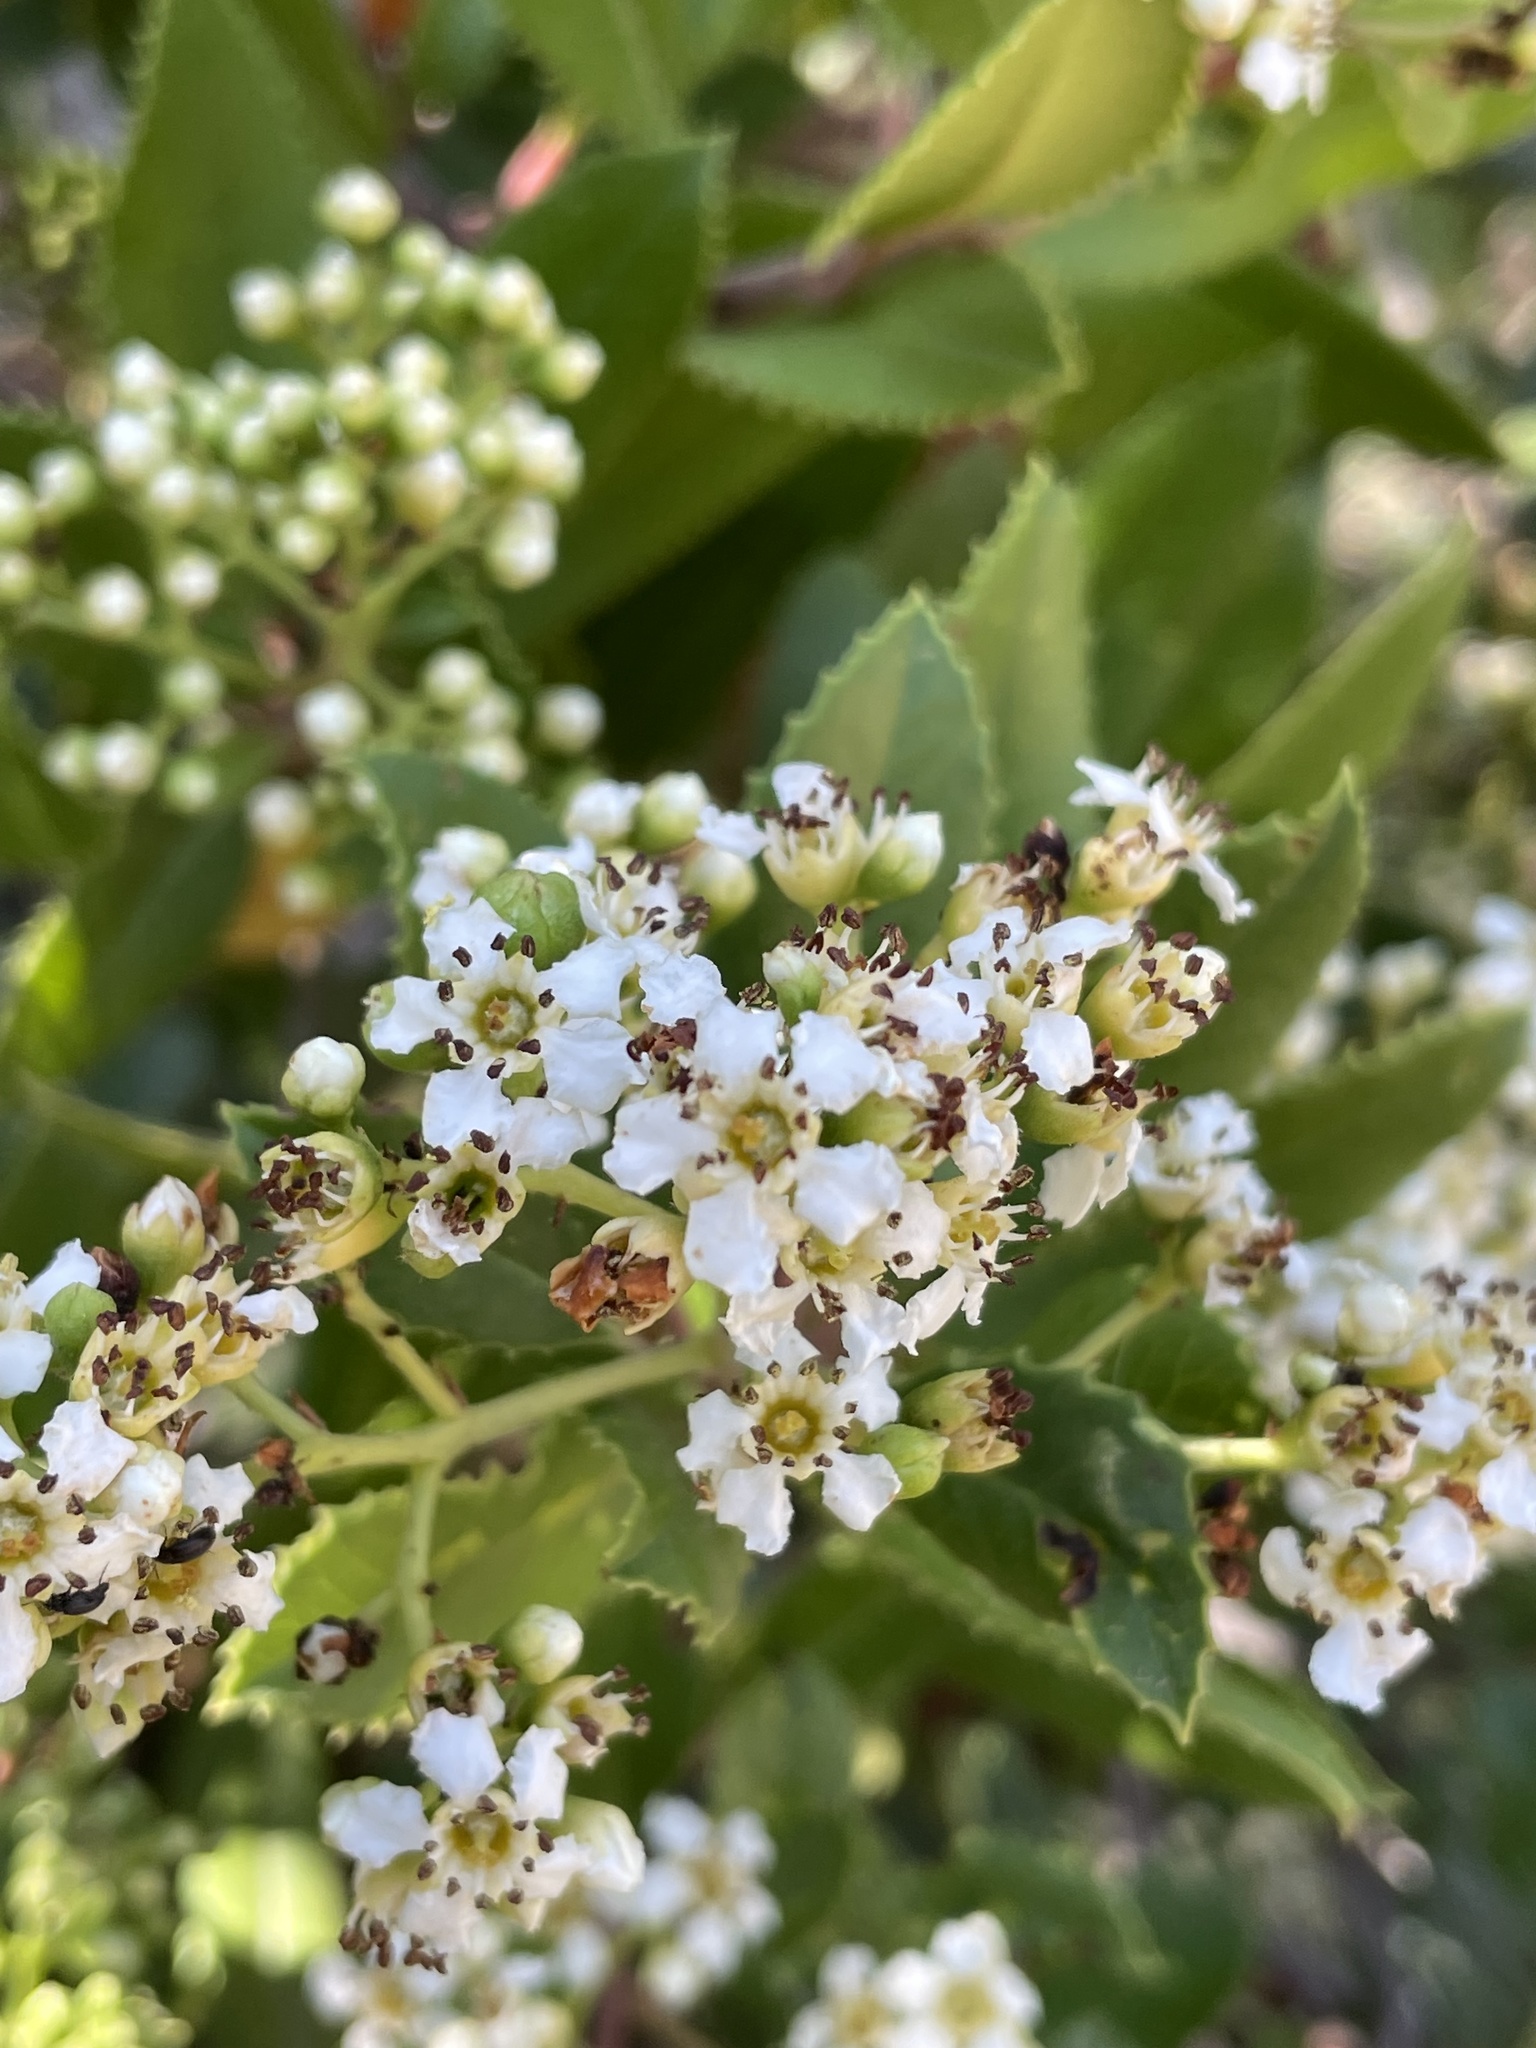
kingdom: Plantae
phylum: Tracheophyta
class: Magnoliopsida
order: Rosales
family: Rosaceae
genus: Heteromeles
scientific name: Heteromeles arbutifolia
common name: California-holly
